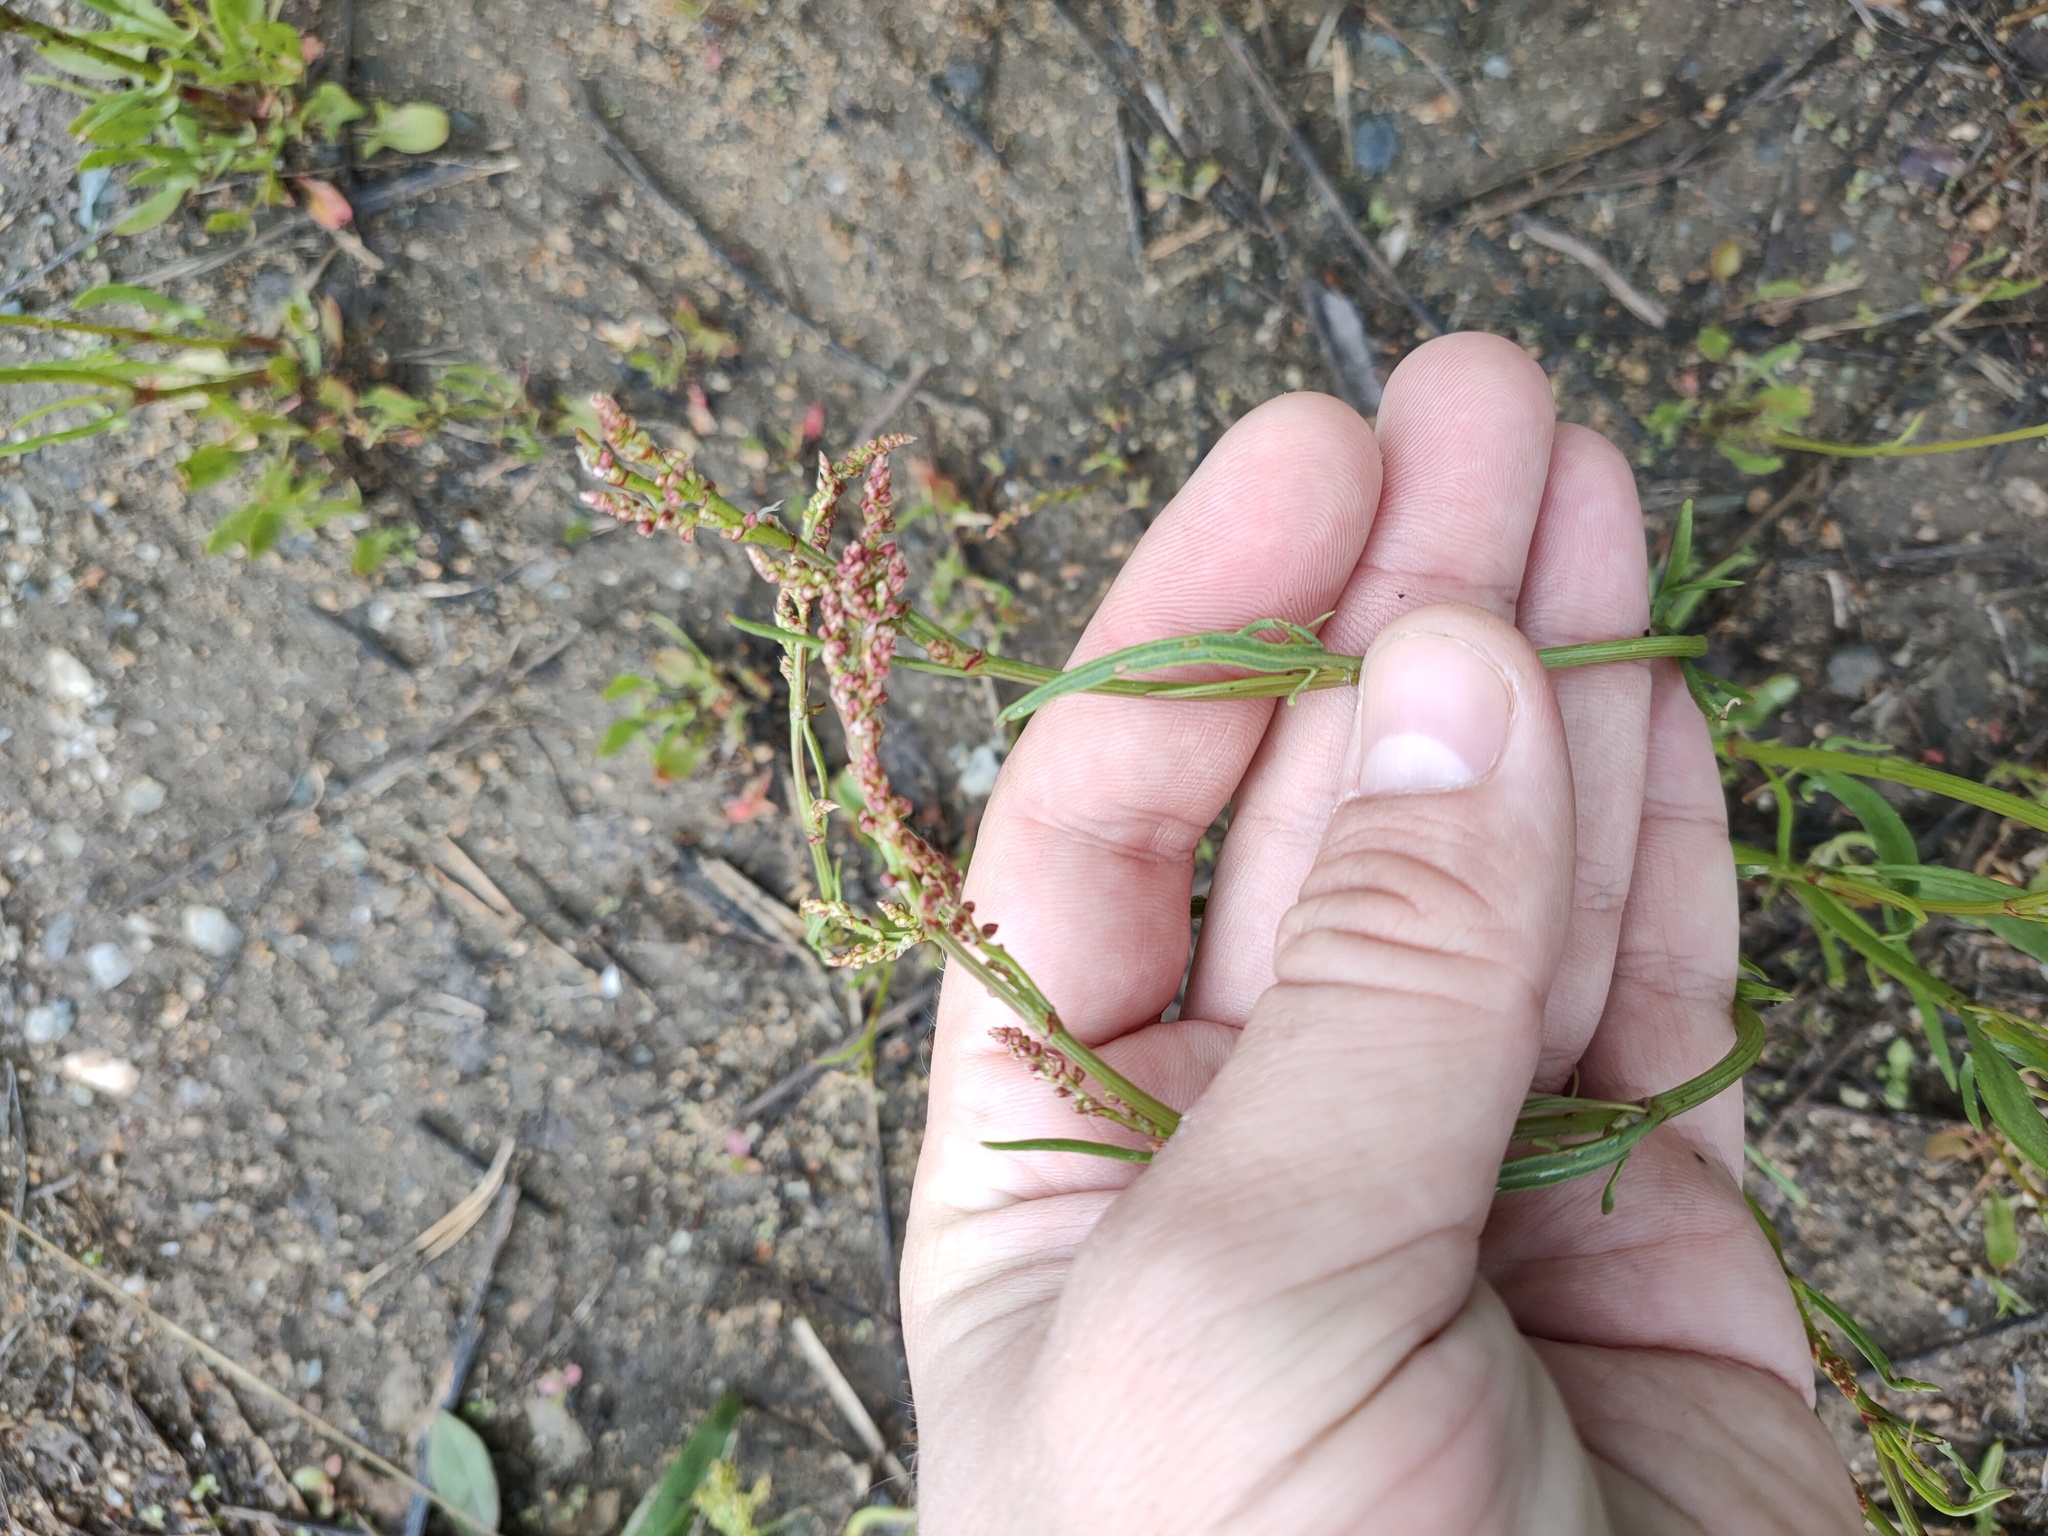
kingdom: Plantae
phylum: Tracheophyta
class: Magnoliopsida
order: Caryophyllales
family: Polygonaceae
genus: Rumex
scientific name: Rumex acetosella
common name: Common sheep sorrel
